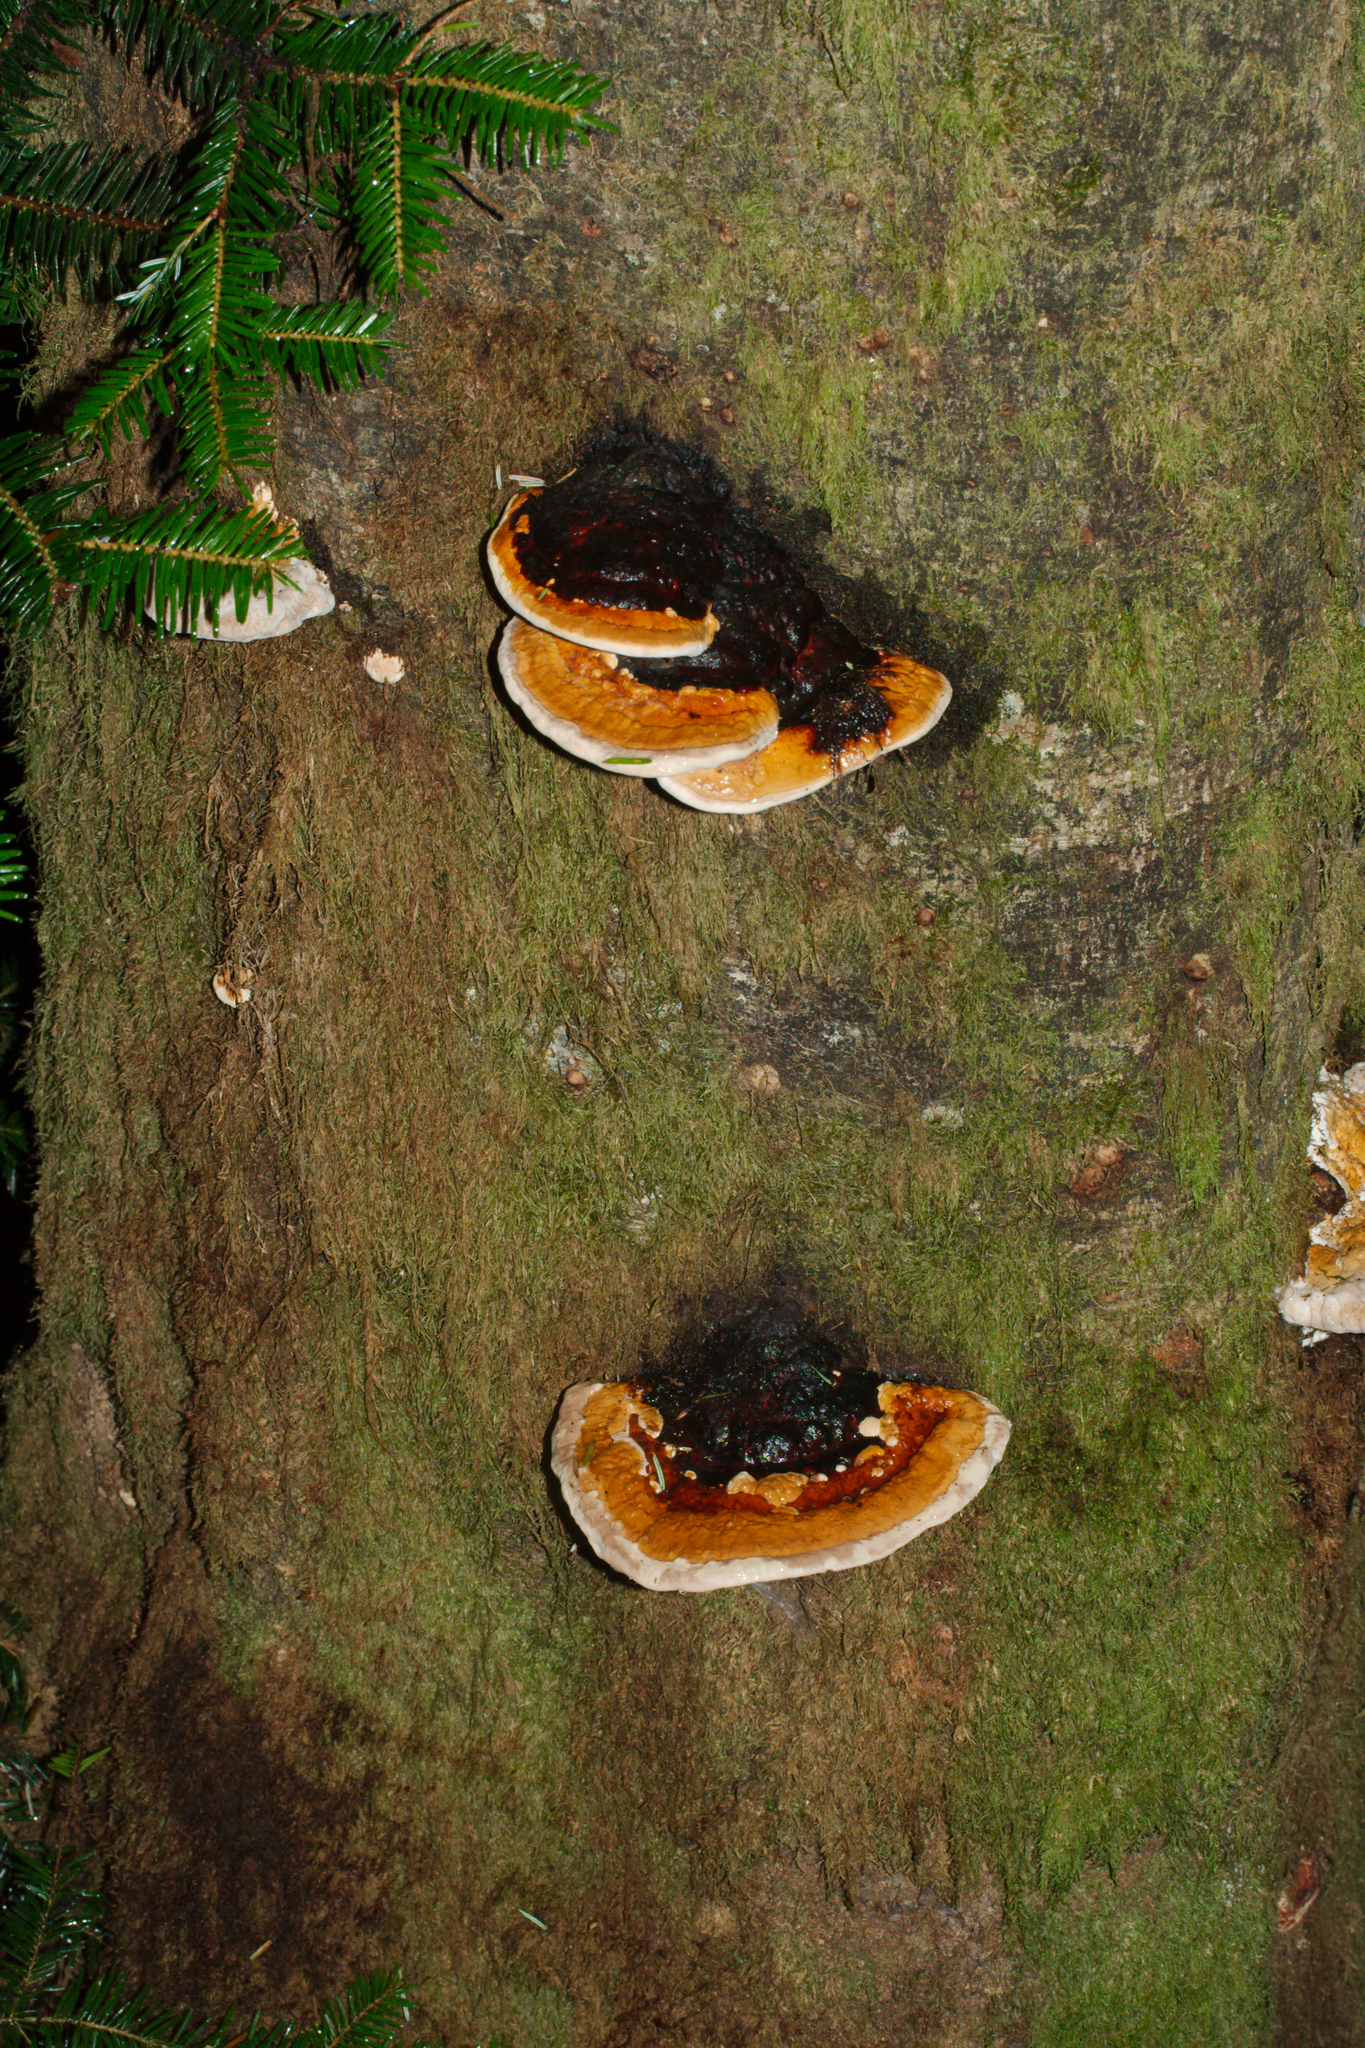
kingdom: Fungi
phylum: Basidiomycota
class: Agaricomycetes
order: Polyporales
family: Fomitopsidaceae
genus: Fomitopsis
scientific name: Fomitopsis pinicola
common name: Red-belted bracket
